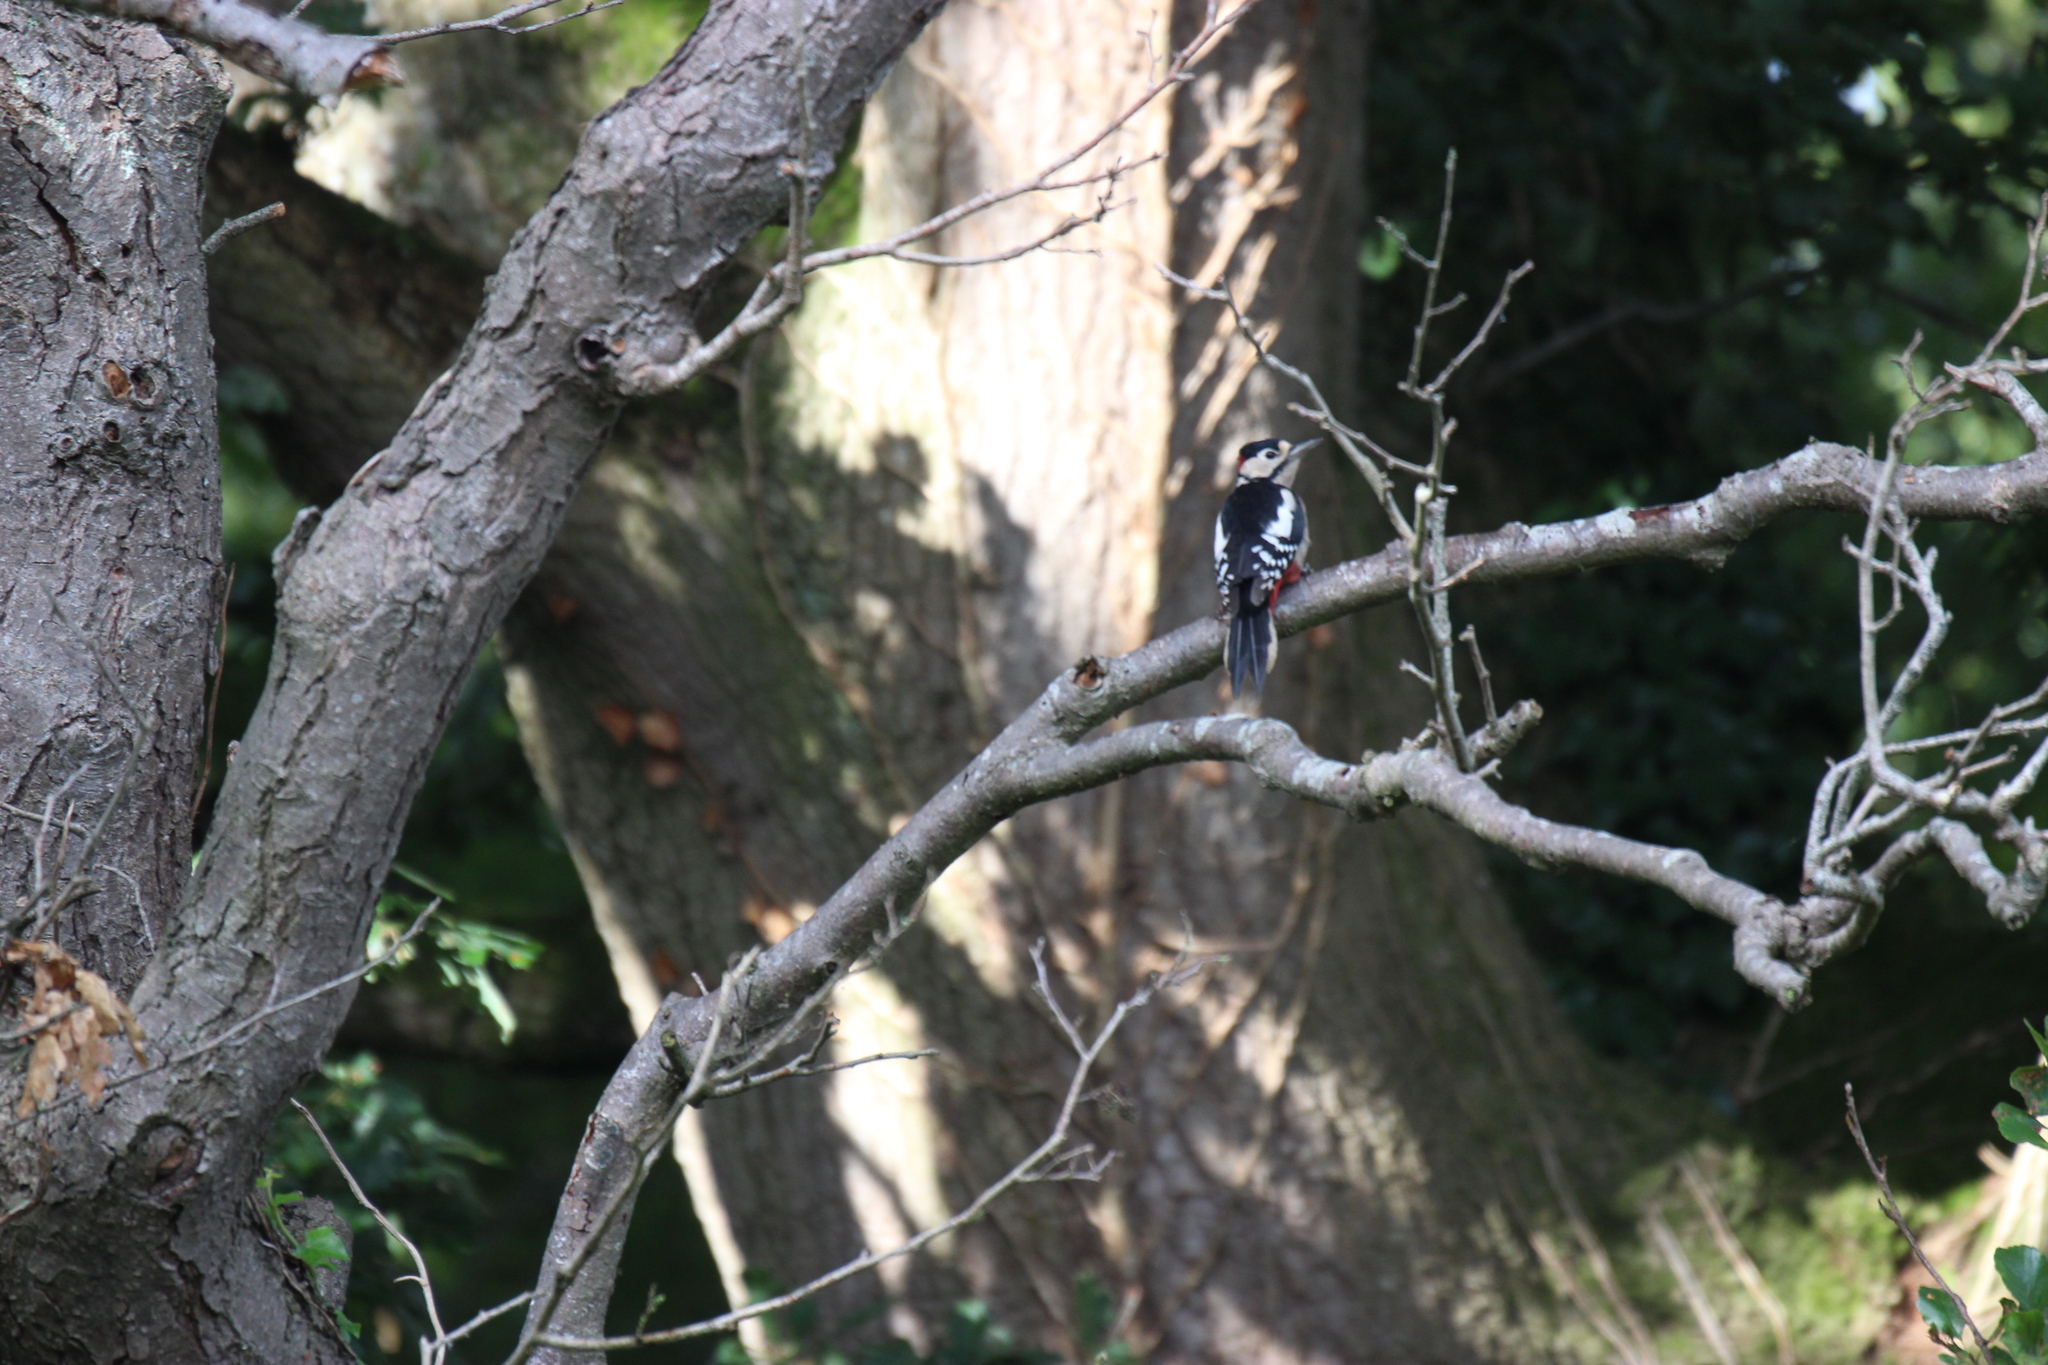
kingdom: Animalia
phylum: Chordata
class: Aves
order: Piciformes
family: Picidae
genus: Dendrocopos
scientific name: Dendrocopos major
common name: Great spotted woodpecker
